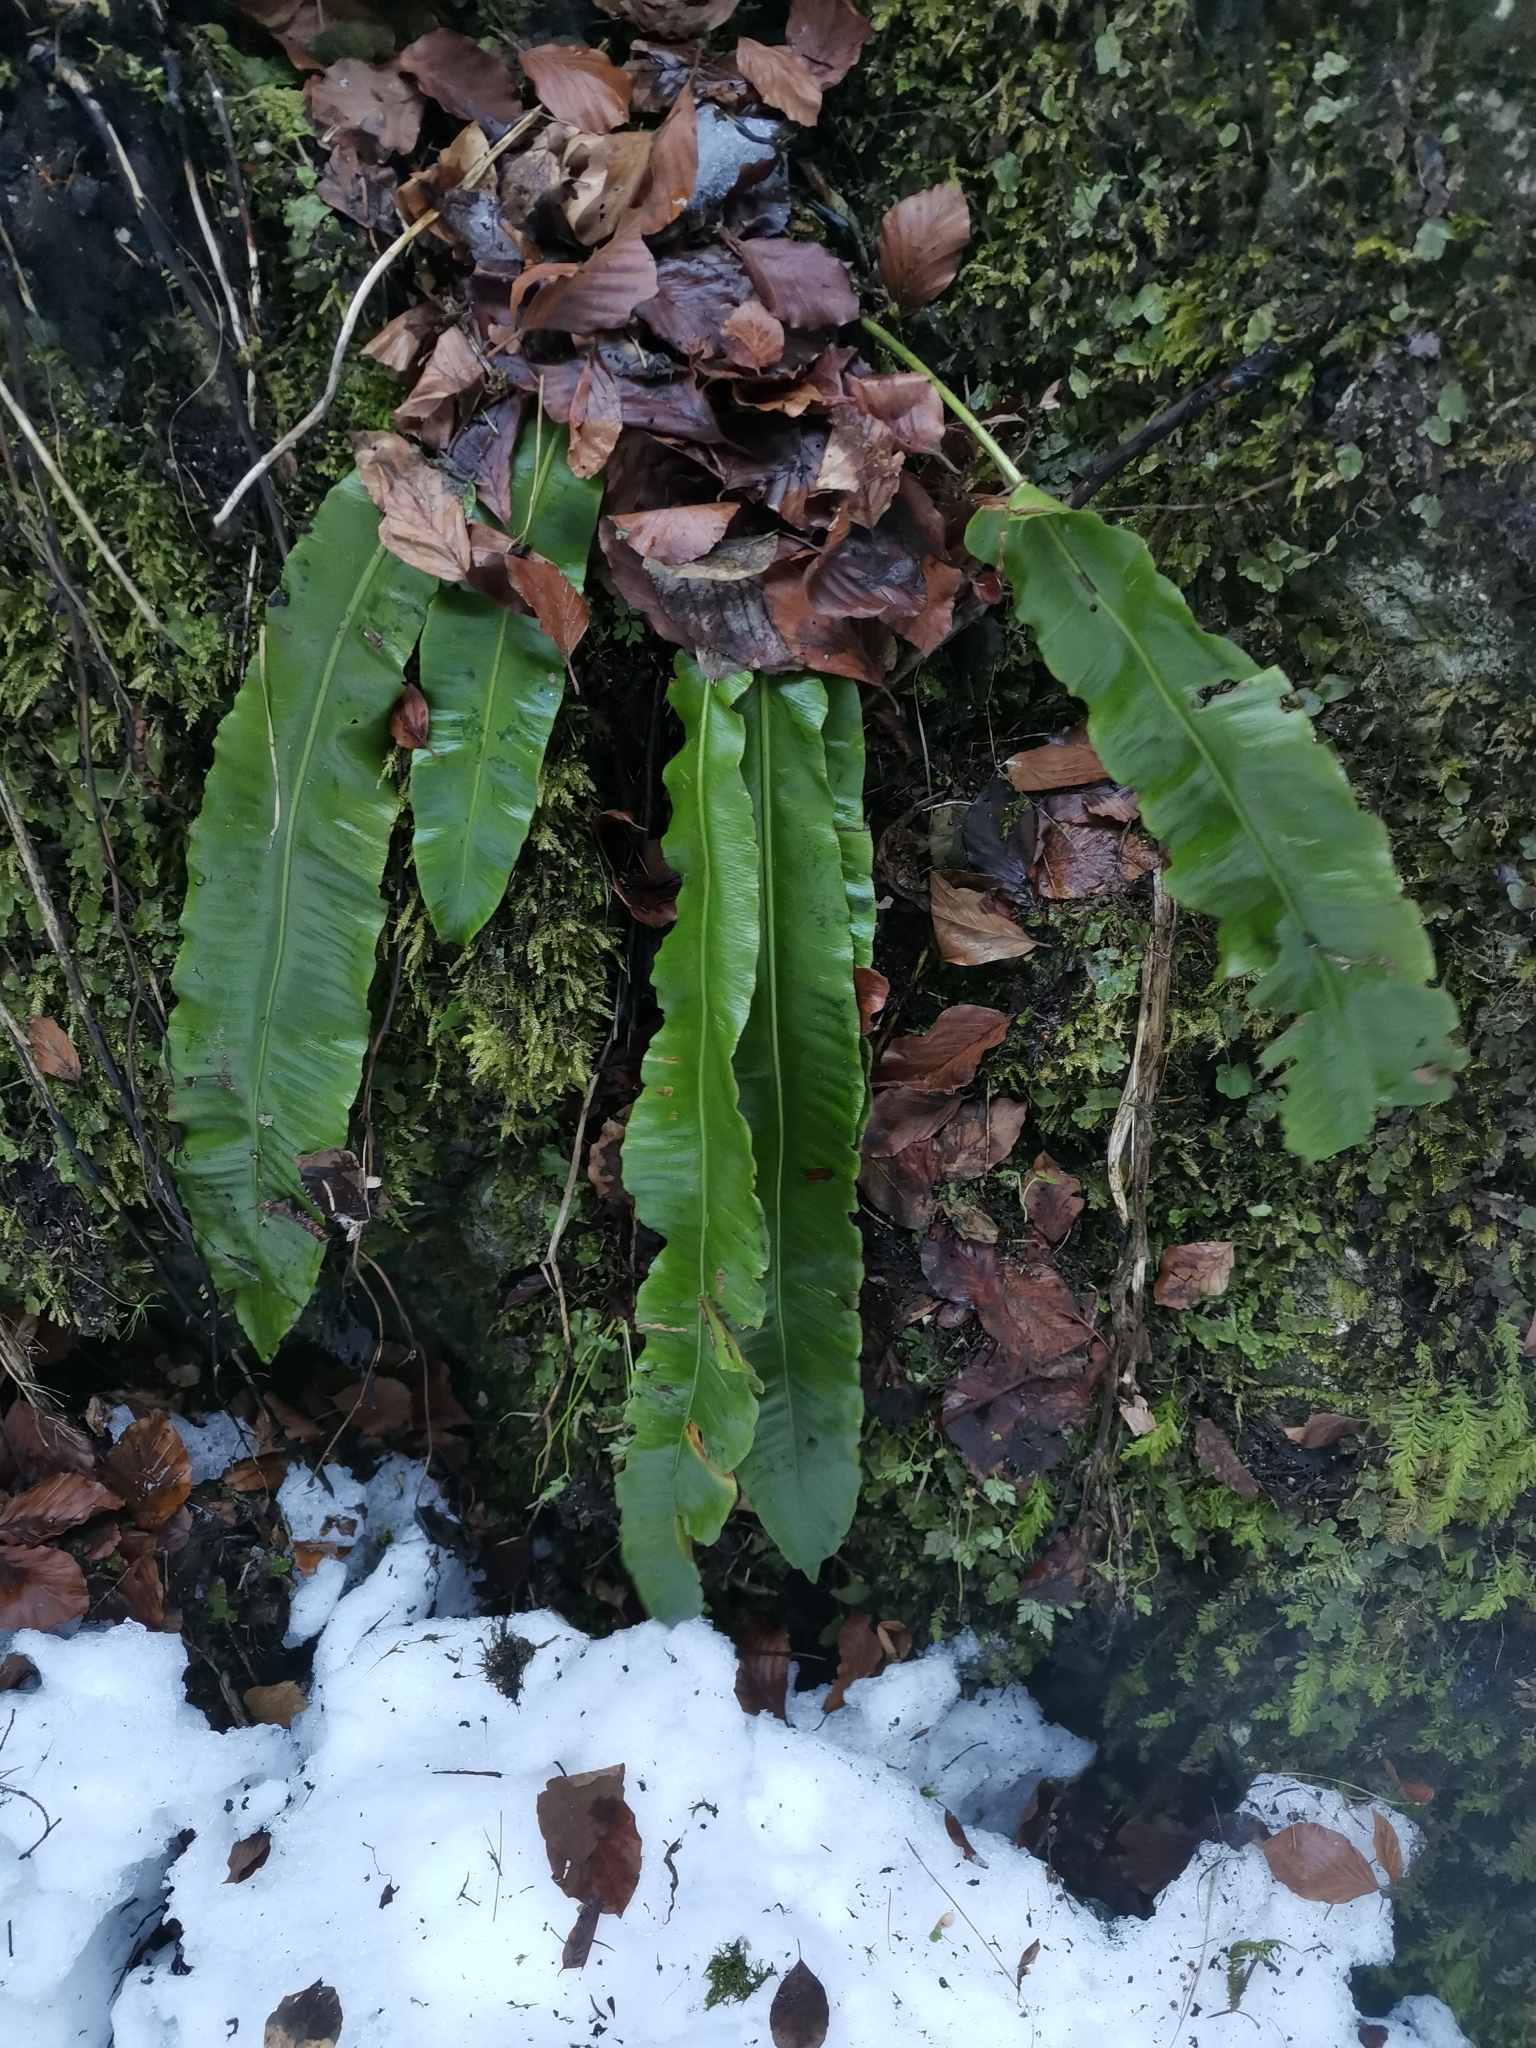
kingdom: Plantae
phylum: Tracheophyta
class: Polypodiopsida
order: Polypodiales
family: Aspleniaceae
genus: Asplenium
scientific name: Asplenium scolopendrium
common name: Hart's-tongue fern
